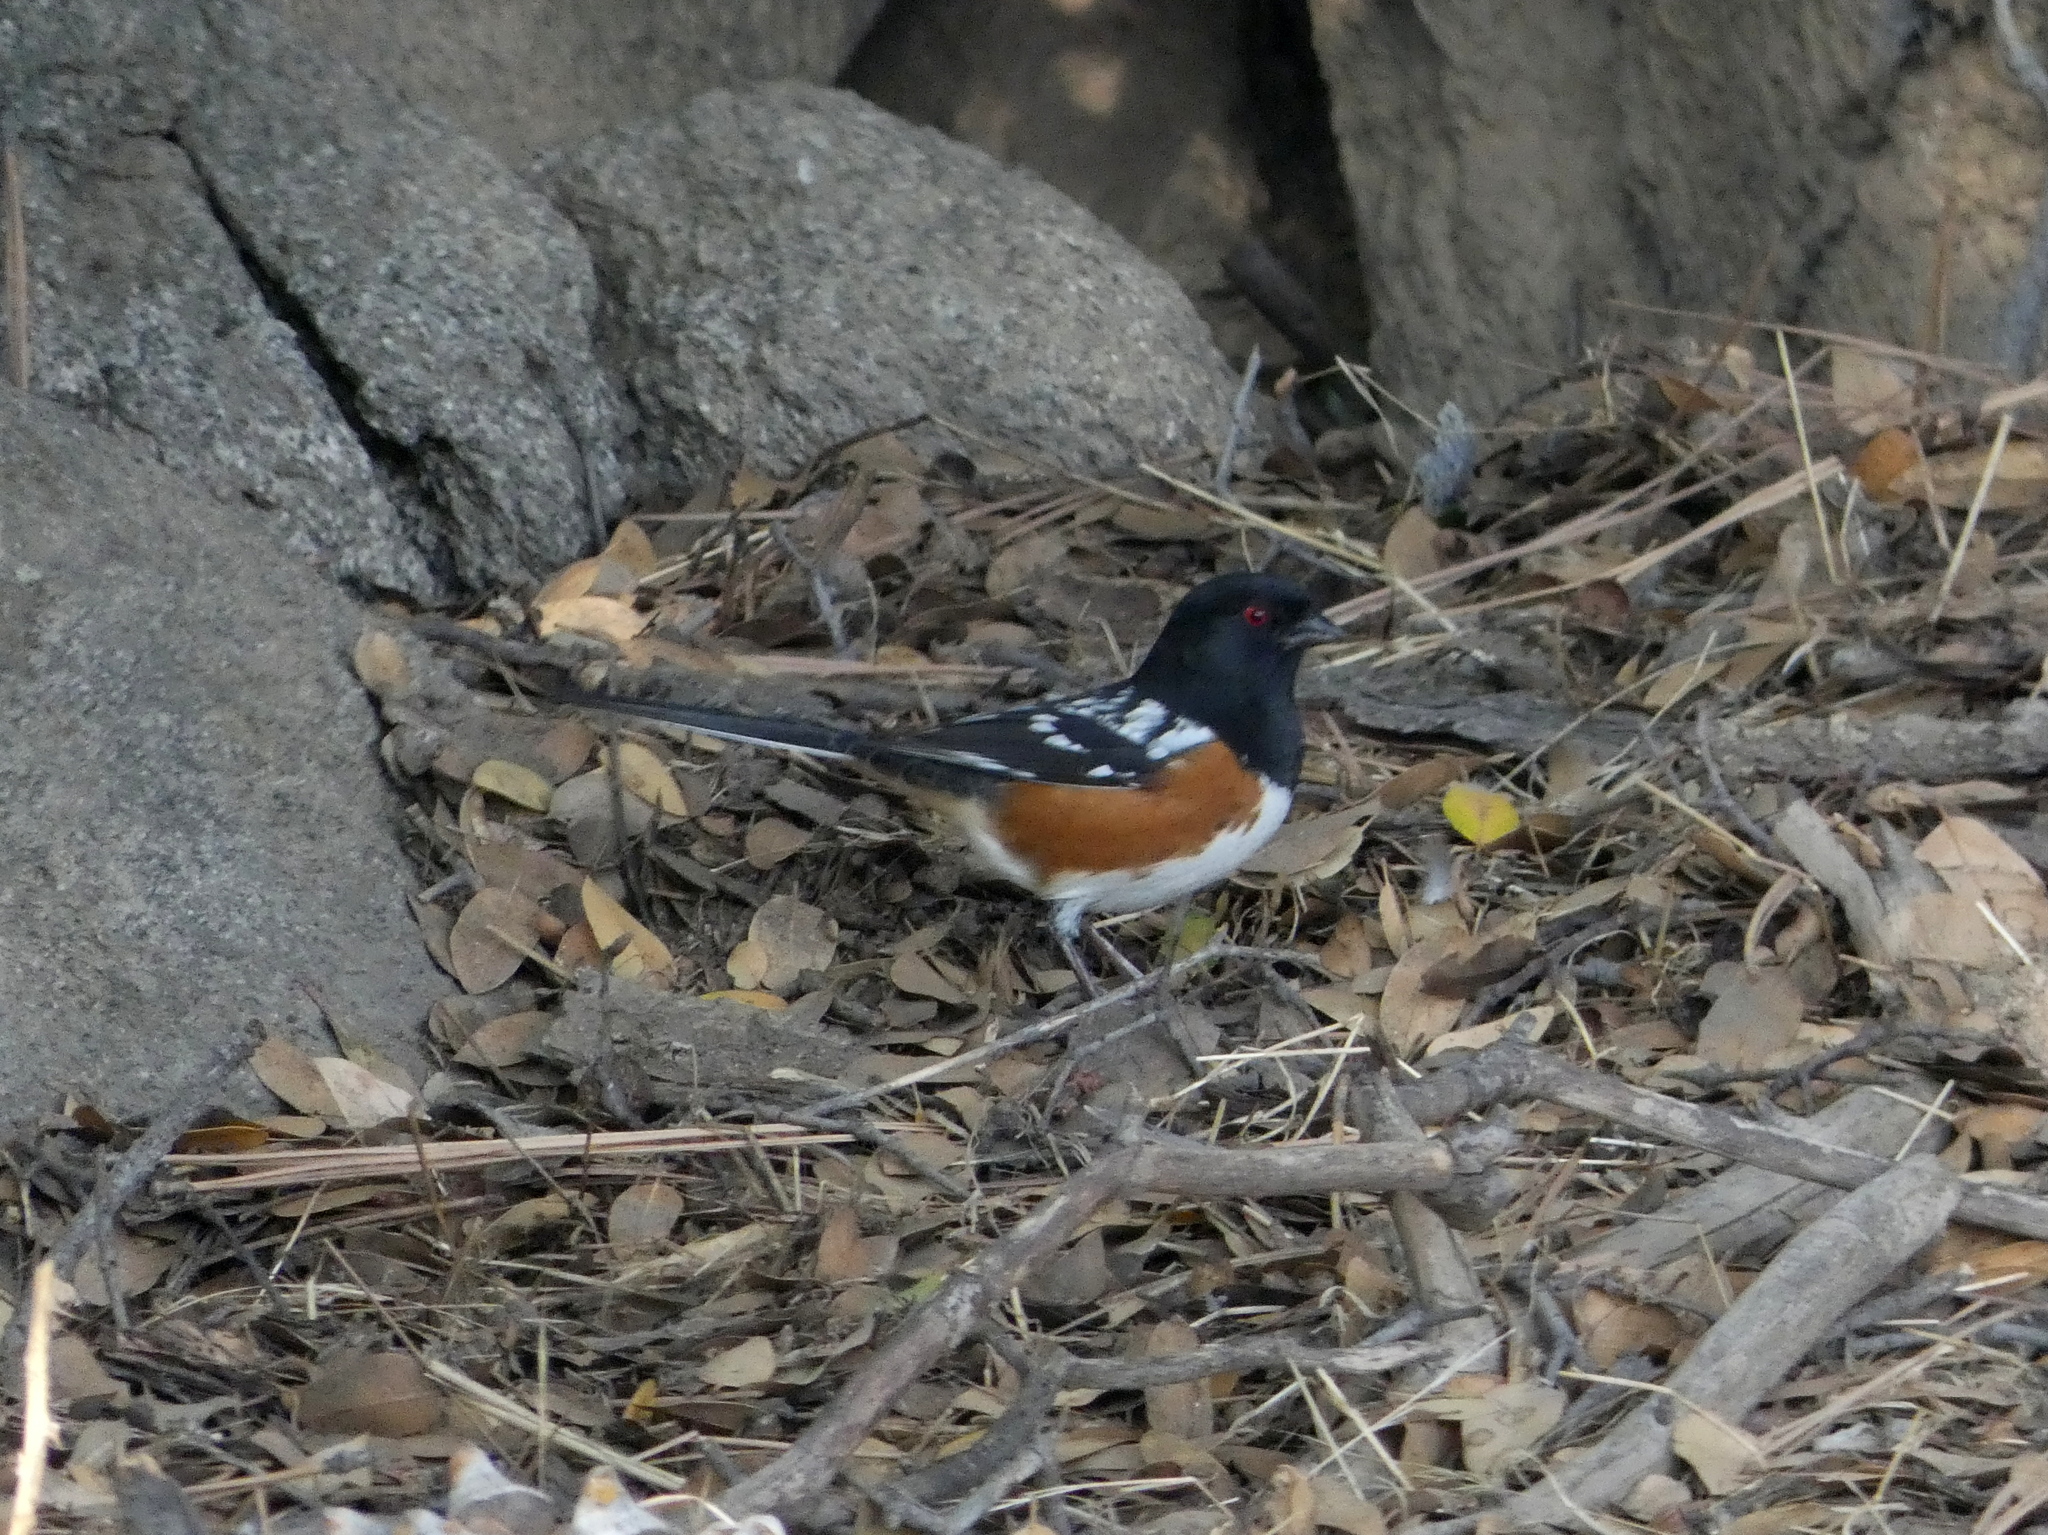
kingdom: Animalia
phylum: Chordata
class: Aves
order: Passeriformes
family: Passerellidae
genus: Pipilo
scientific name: Pipilo maculatus
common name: Spotted towhee
